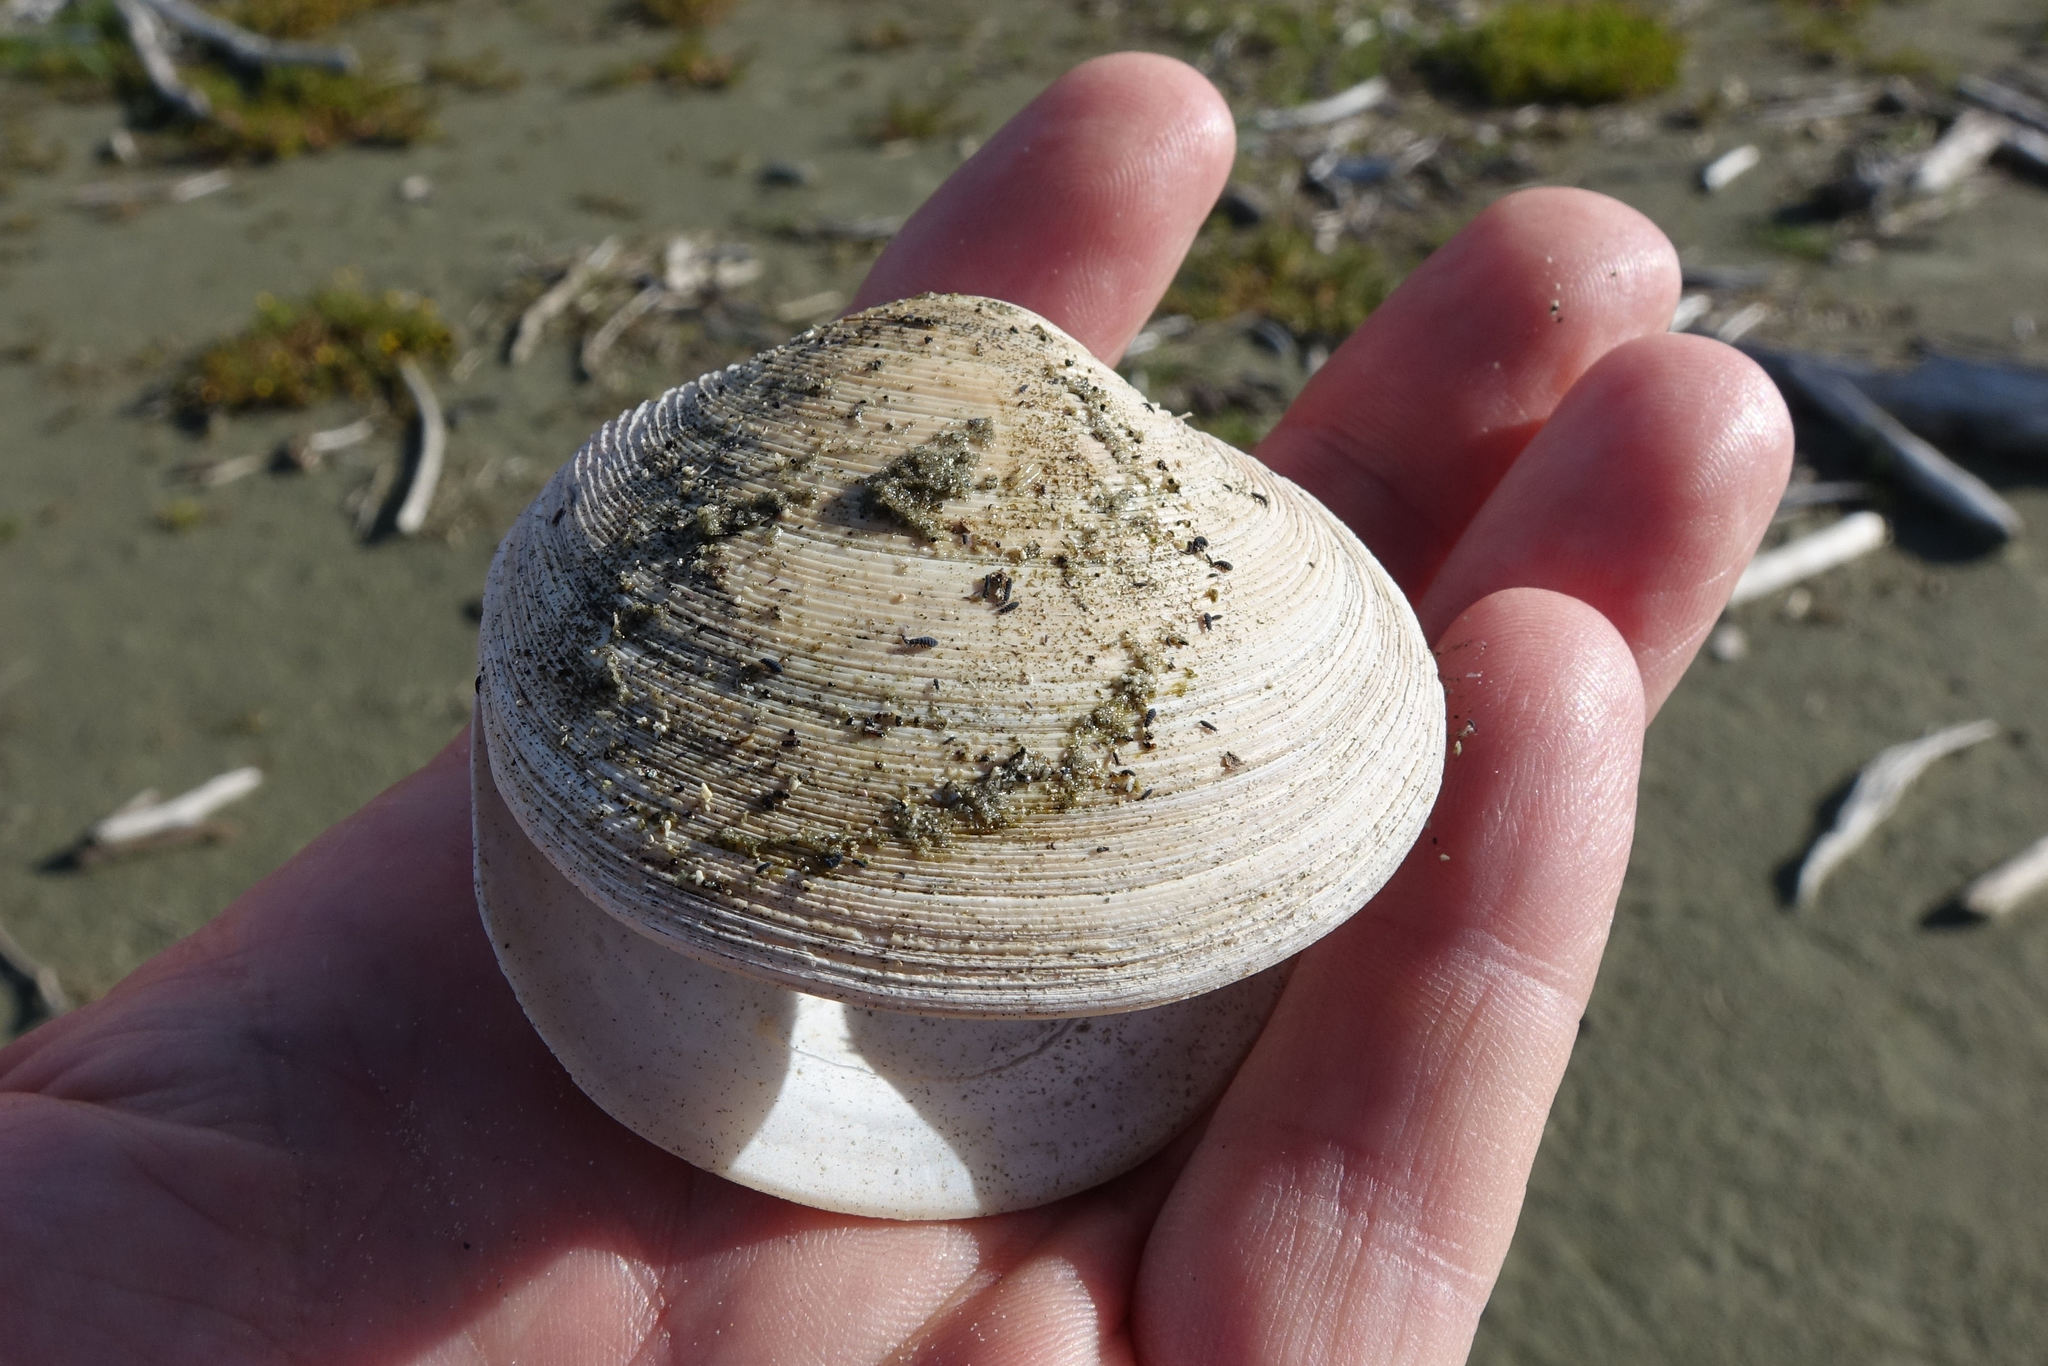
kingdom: Animalia
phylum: Mollusca
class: Bivalvia
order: Venerida
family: Veneridae
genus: Dosinia
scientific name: Dosinia anus
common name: Old-woman dosinia
